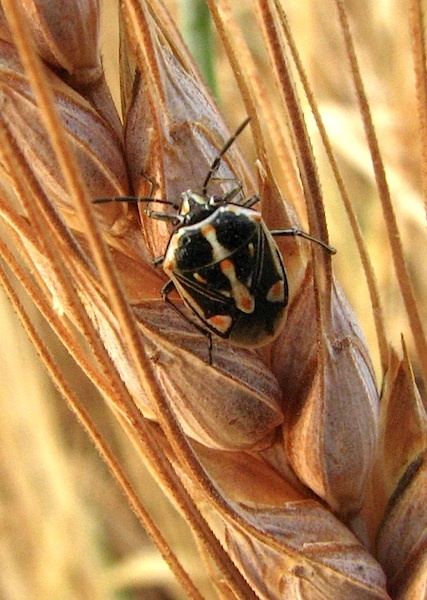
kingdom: Animalia
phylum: Arthropoda
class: Insecta
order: Hemiptera
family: Pentatomidae
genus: Bagrada
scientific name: Bagrada hilaris
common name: Bagrada bug
